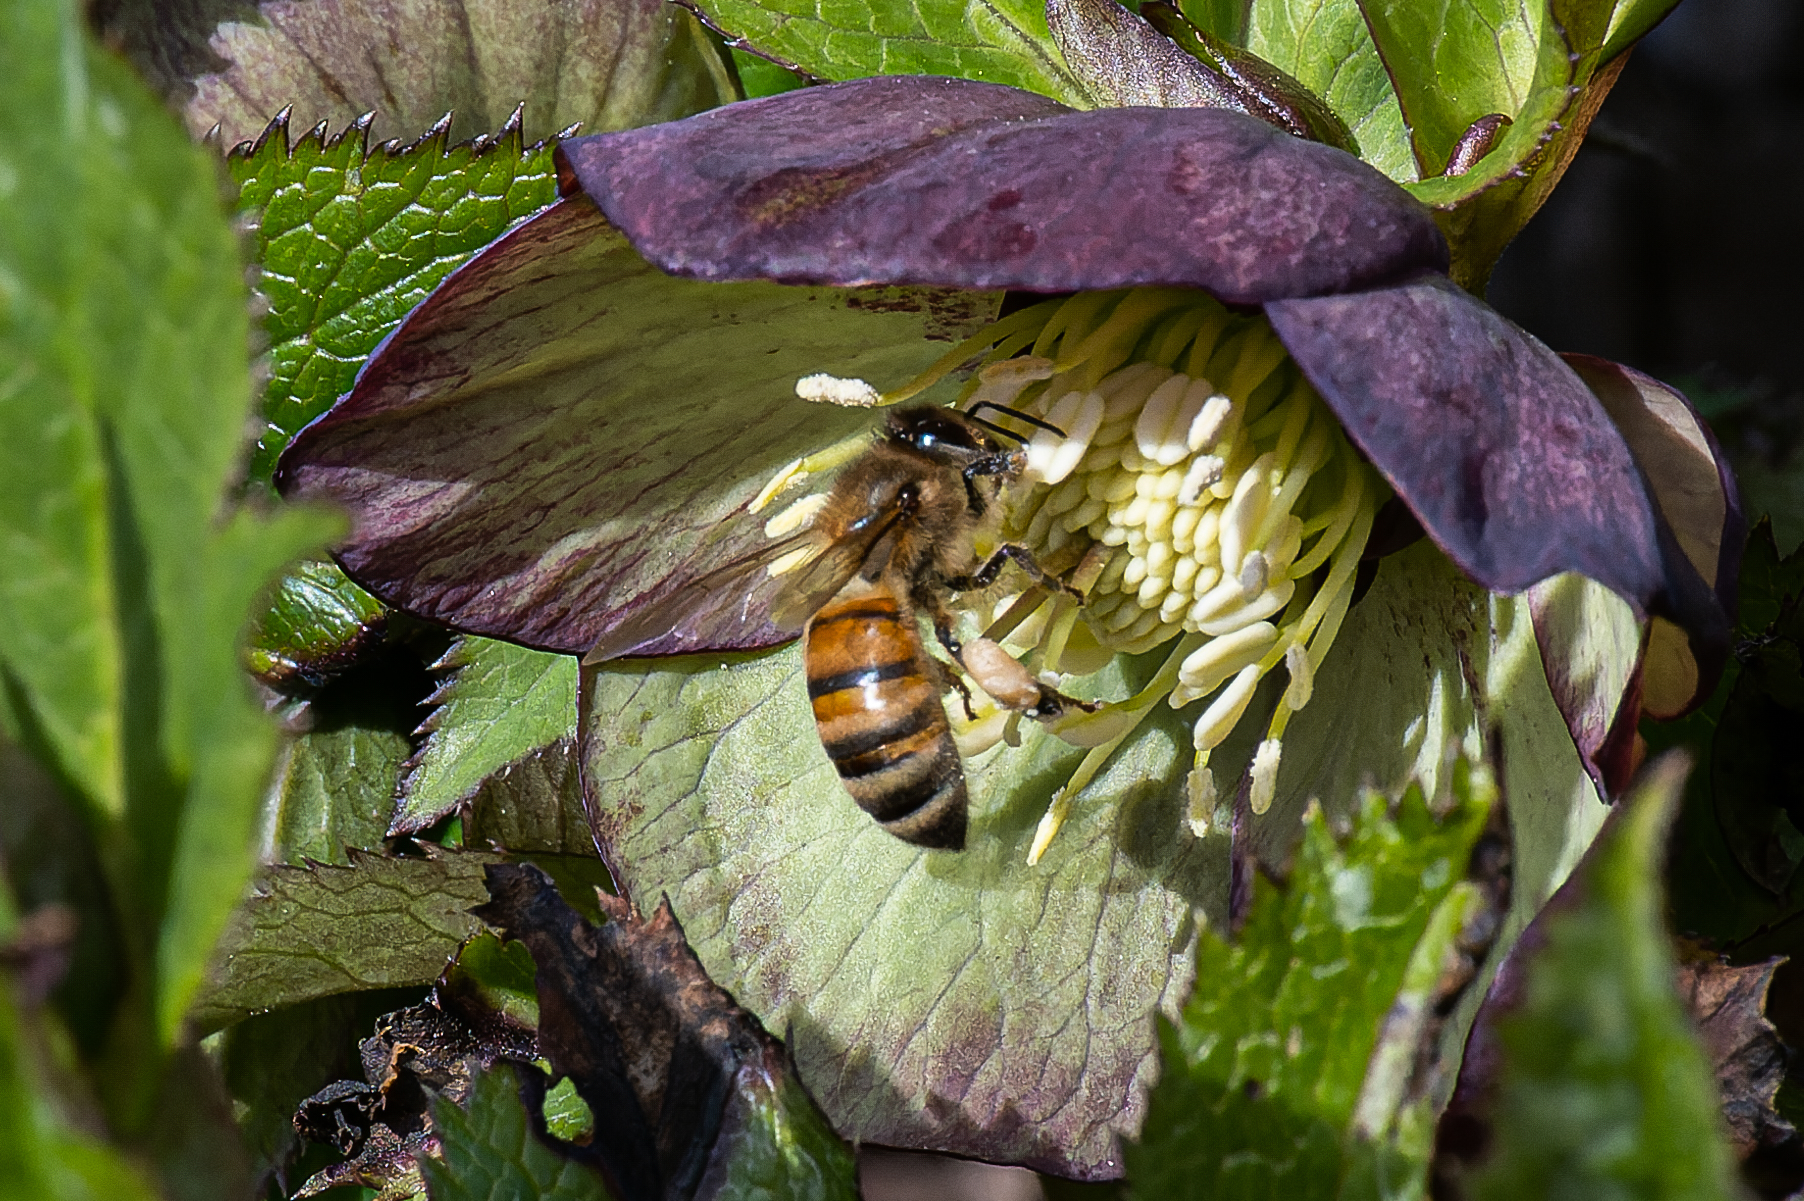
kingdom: Animalia
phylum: Arthropoda
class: Insecta
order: Hymenoptera
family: Apidae
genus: Apis
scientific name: Apis mellifera
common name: Honey bee
